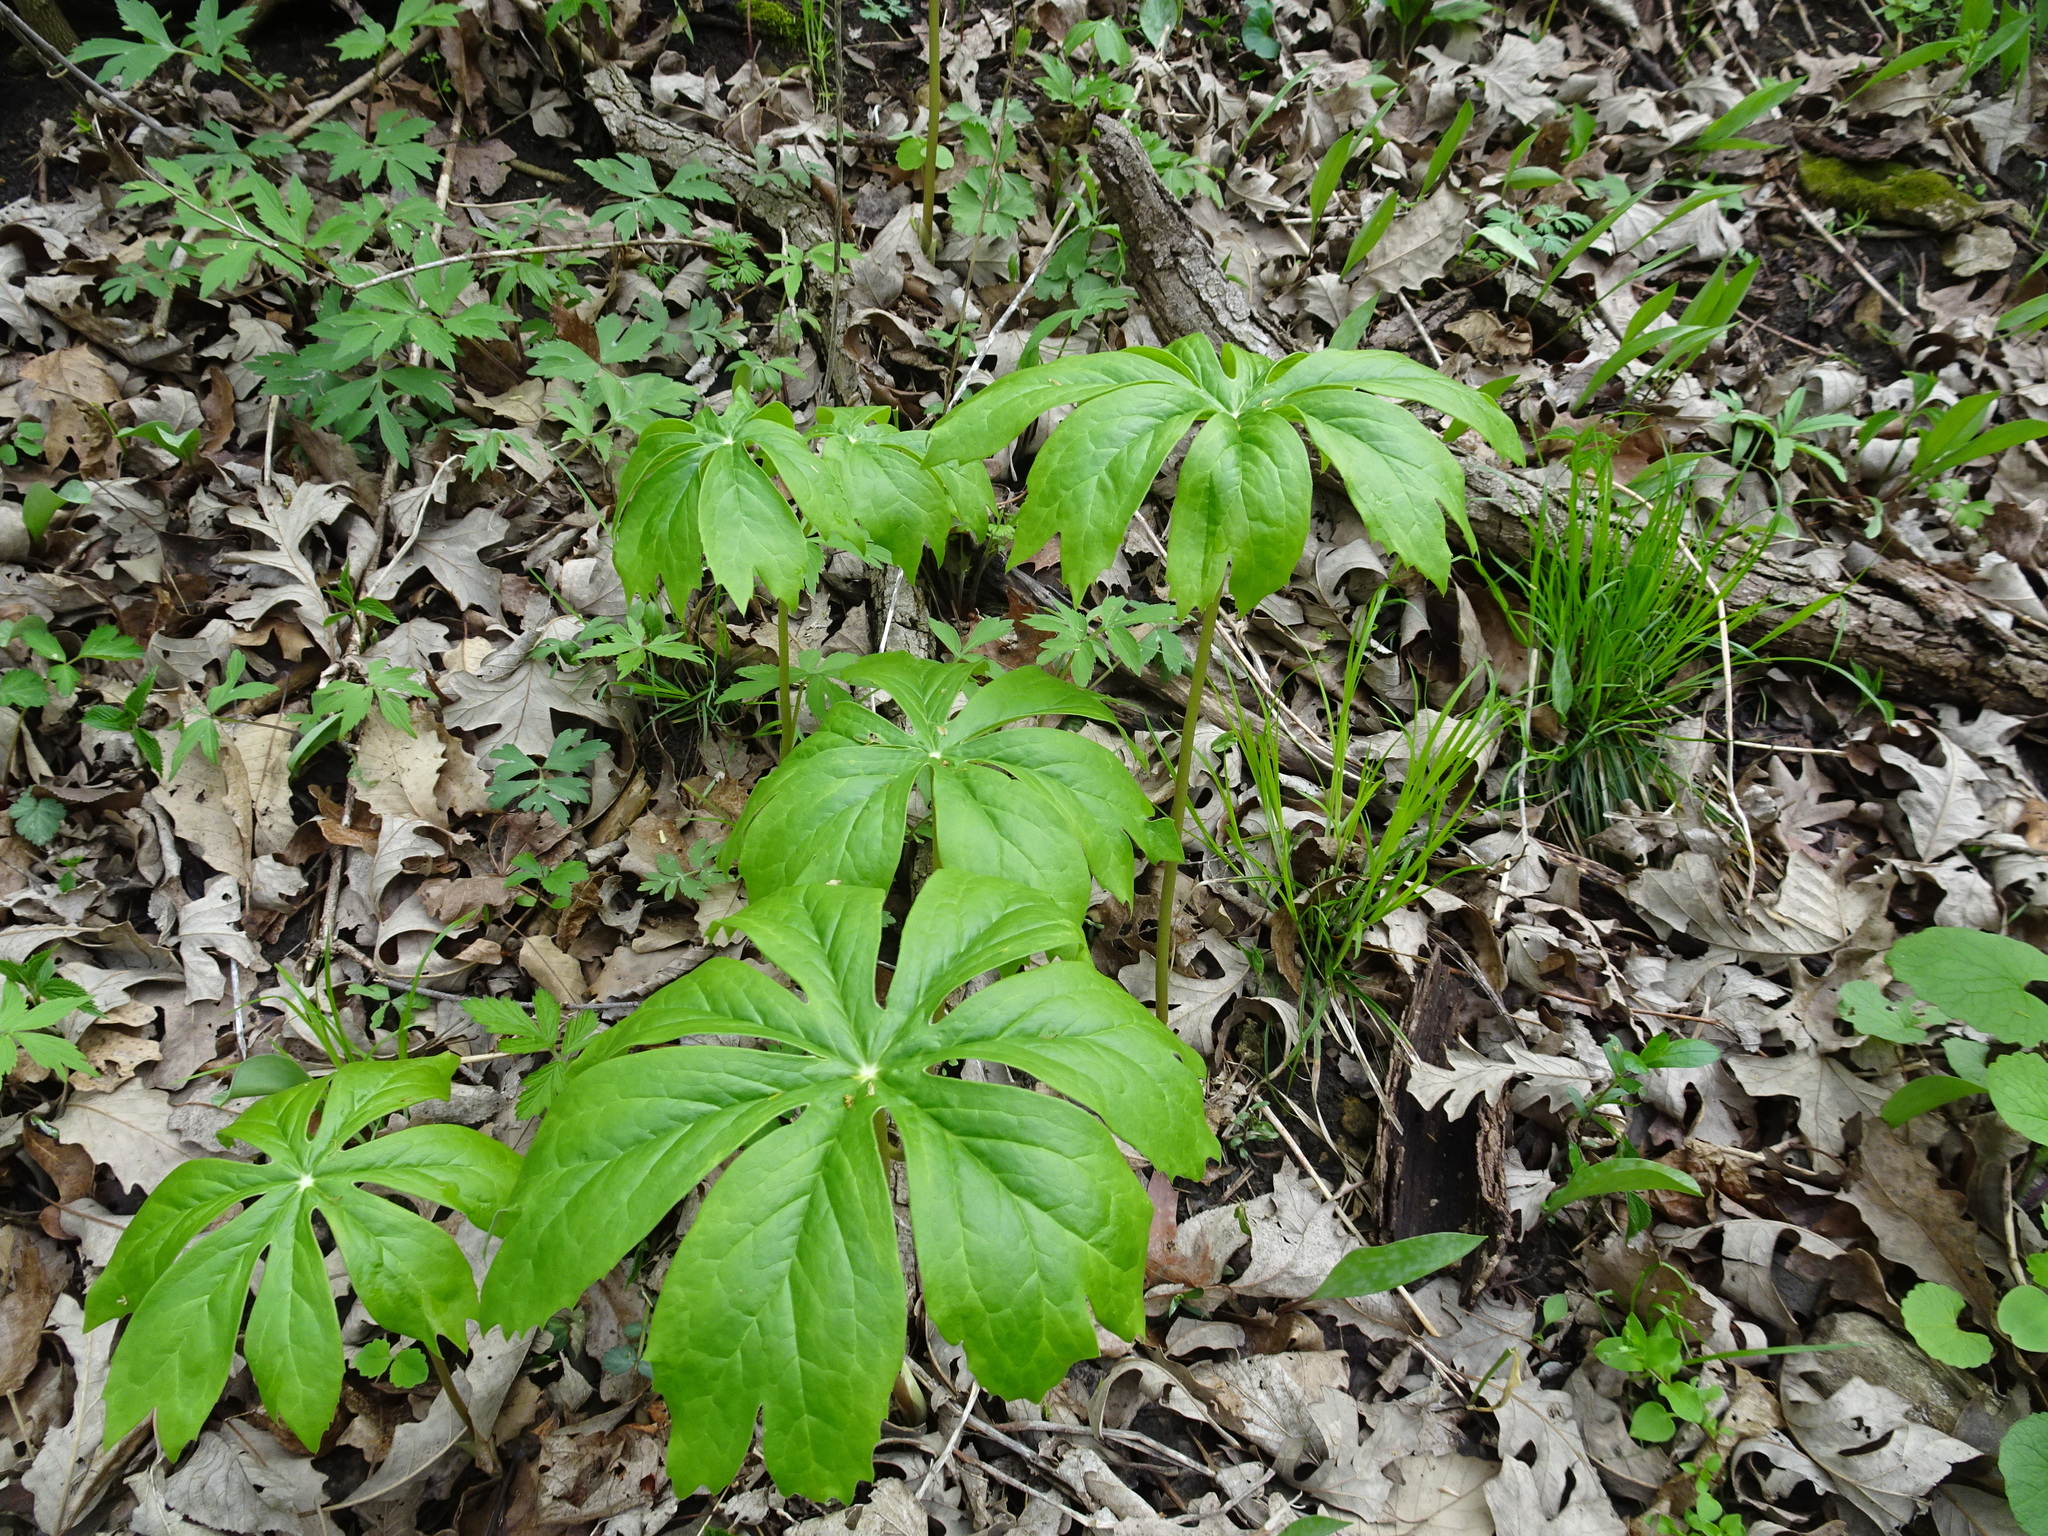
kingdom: Plantae
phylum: Tracheophyta
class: Magnoliopsida
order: Ranunculales
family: Berberidaceae
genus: Podophyllum
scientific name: Podophyllum peltatum
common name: Wild mandrake
